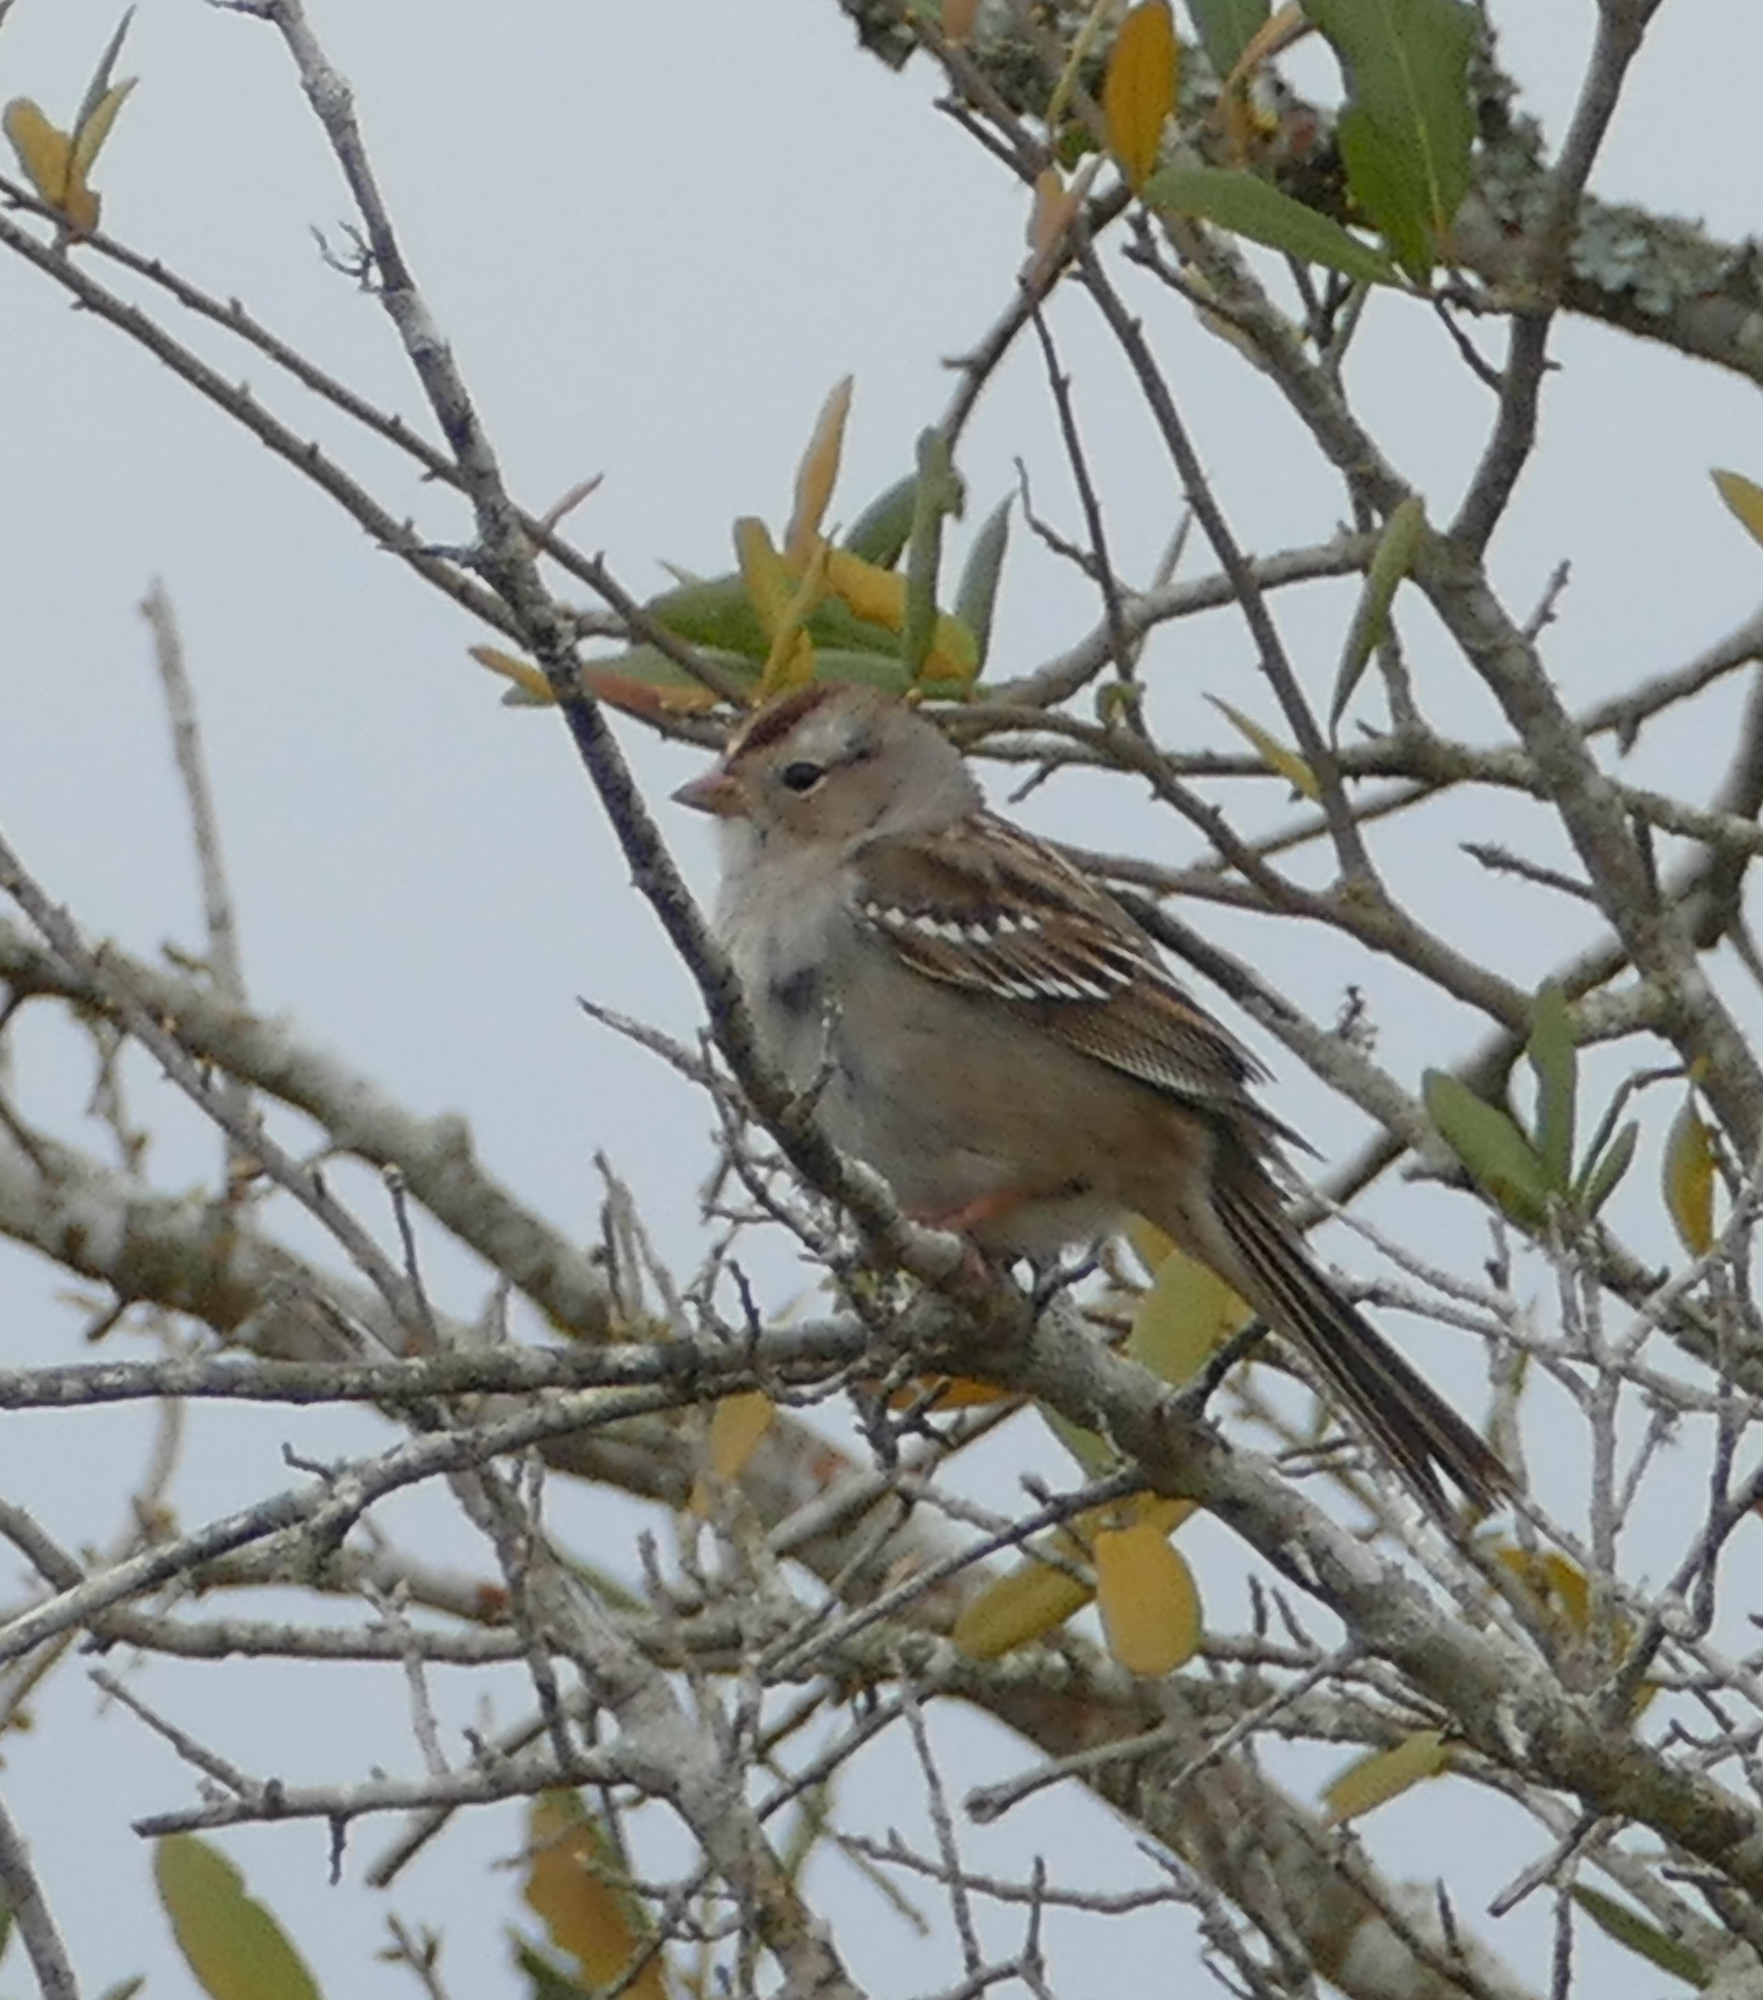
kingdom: Animalia
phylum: Chordata
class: Aves
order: Passeriformes
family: Passerellidae
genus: Zonotrichia
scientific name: Zonotrichia leucophrys
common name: White-crowned sparrow
